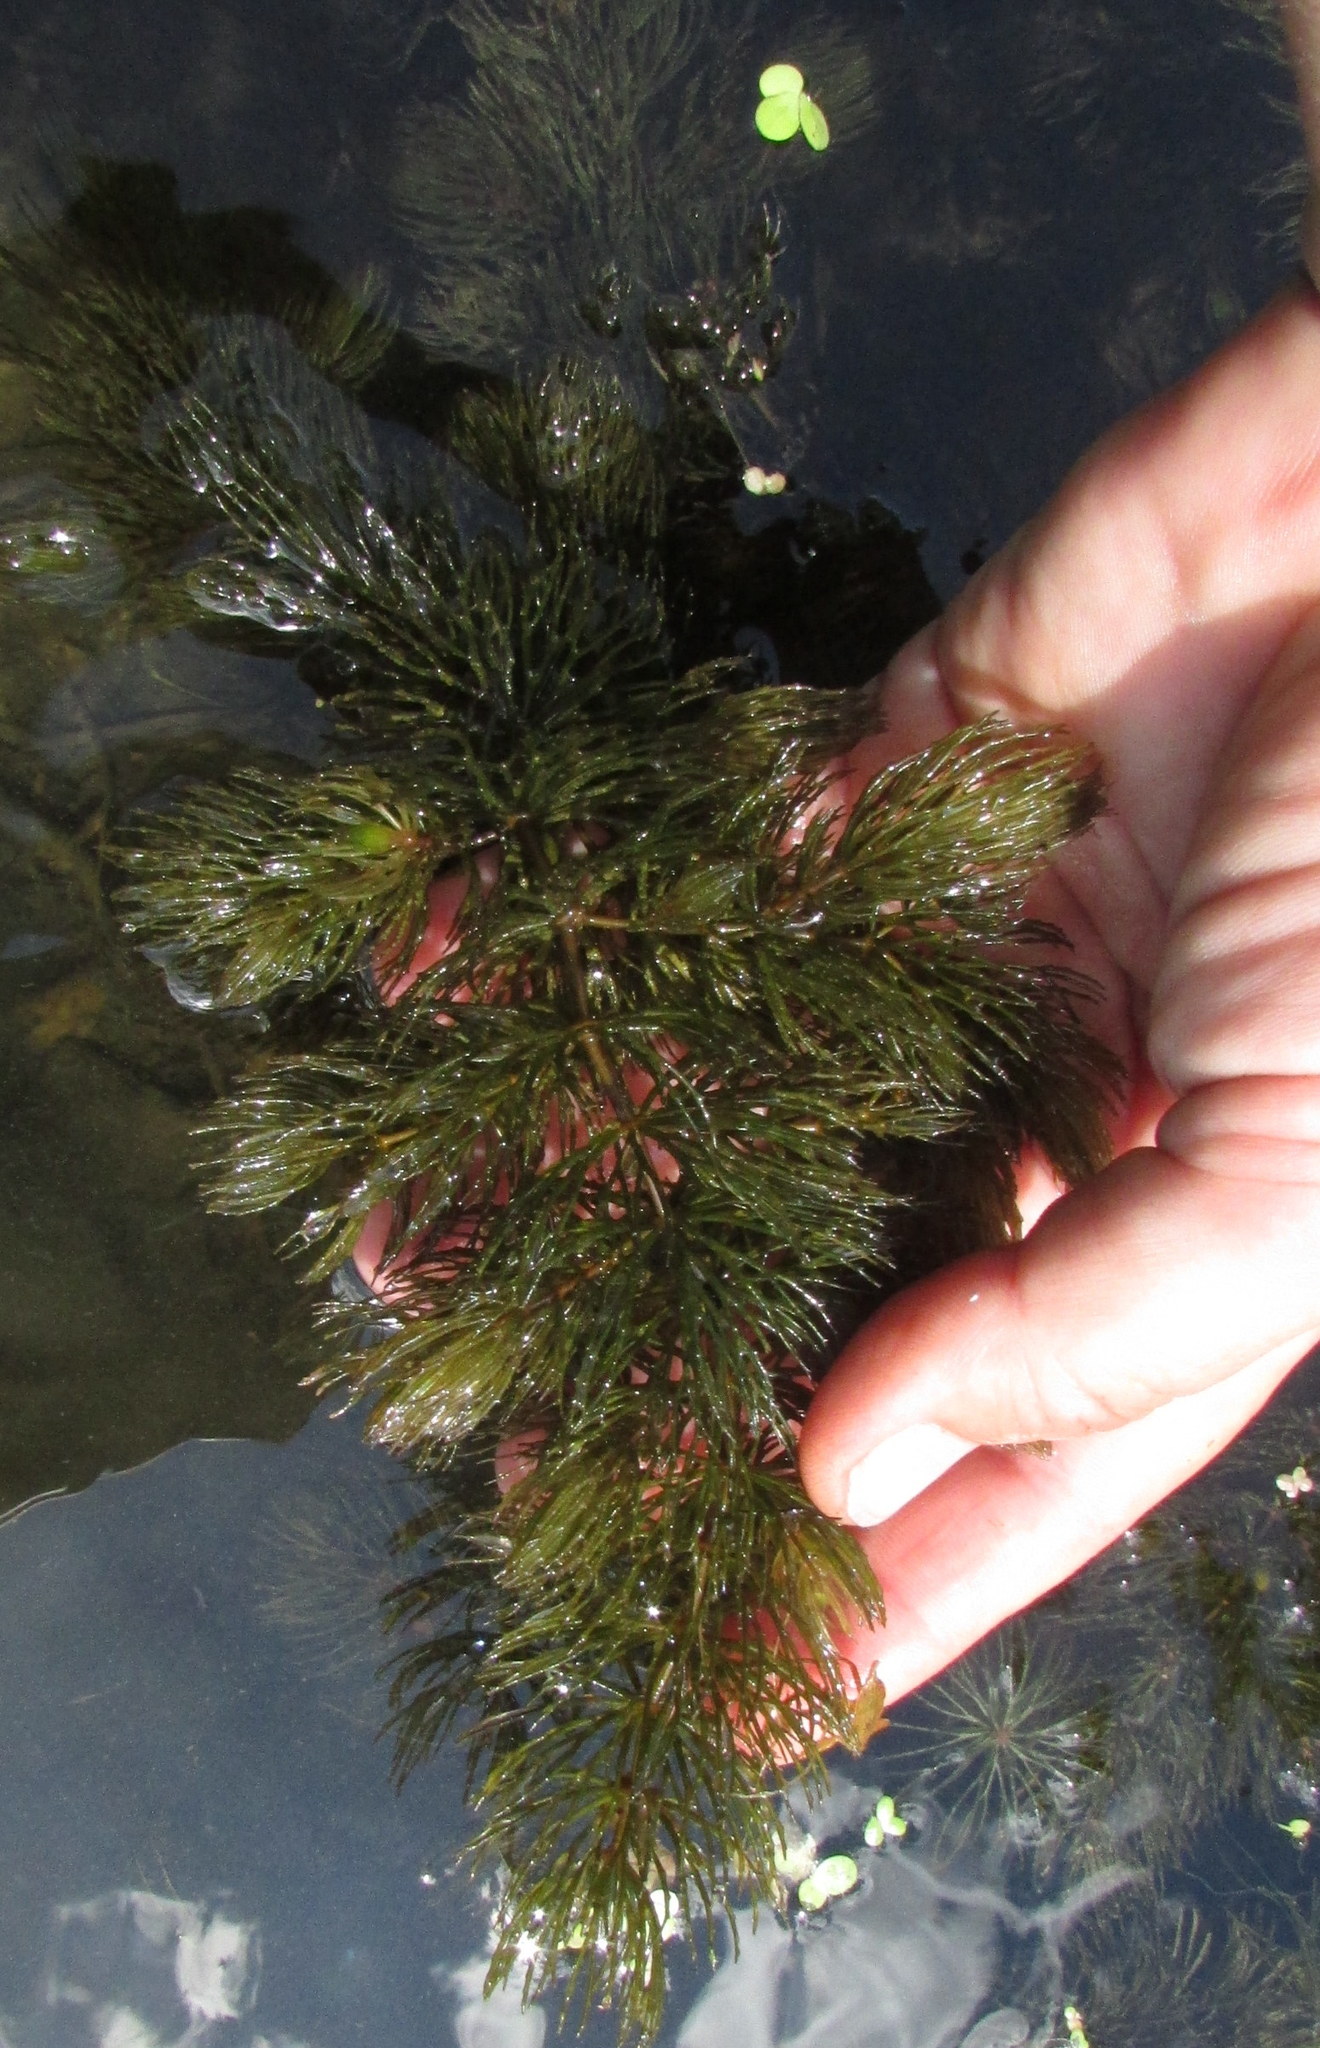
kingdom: Plantae
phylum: Tracheophyta
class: Magnoliopsida
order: Ceratophyllales
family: Ceratophyllaceae
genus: Ceratophyllum
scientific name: Ceratophyllum demersum
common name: Rigid hornwort
